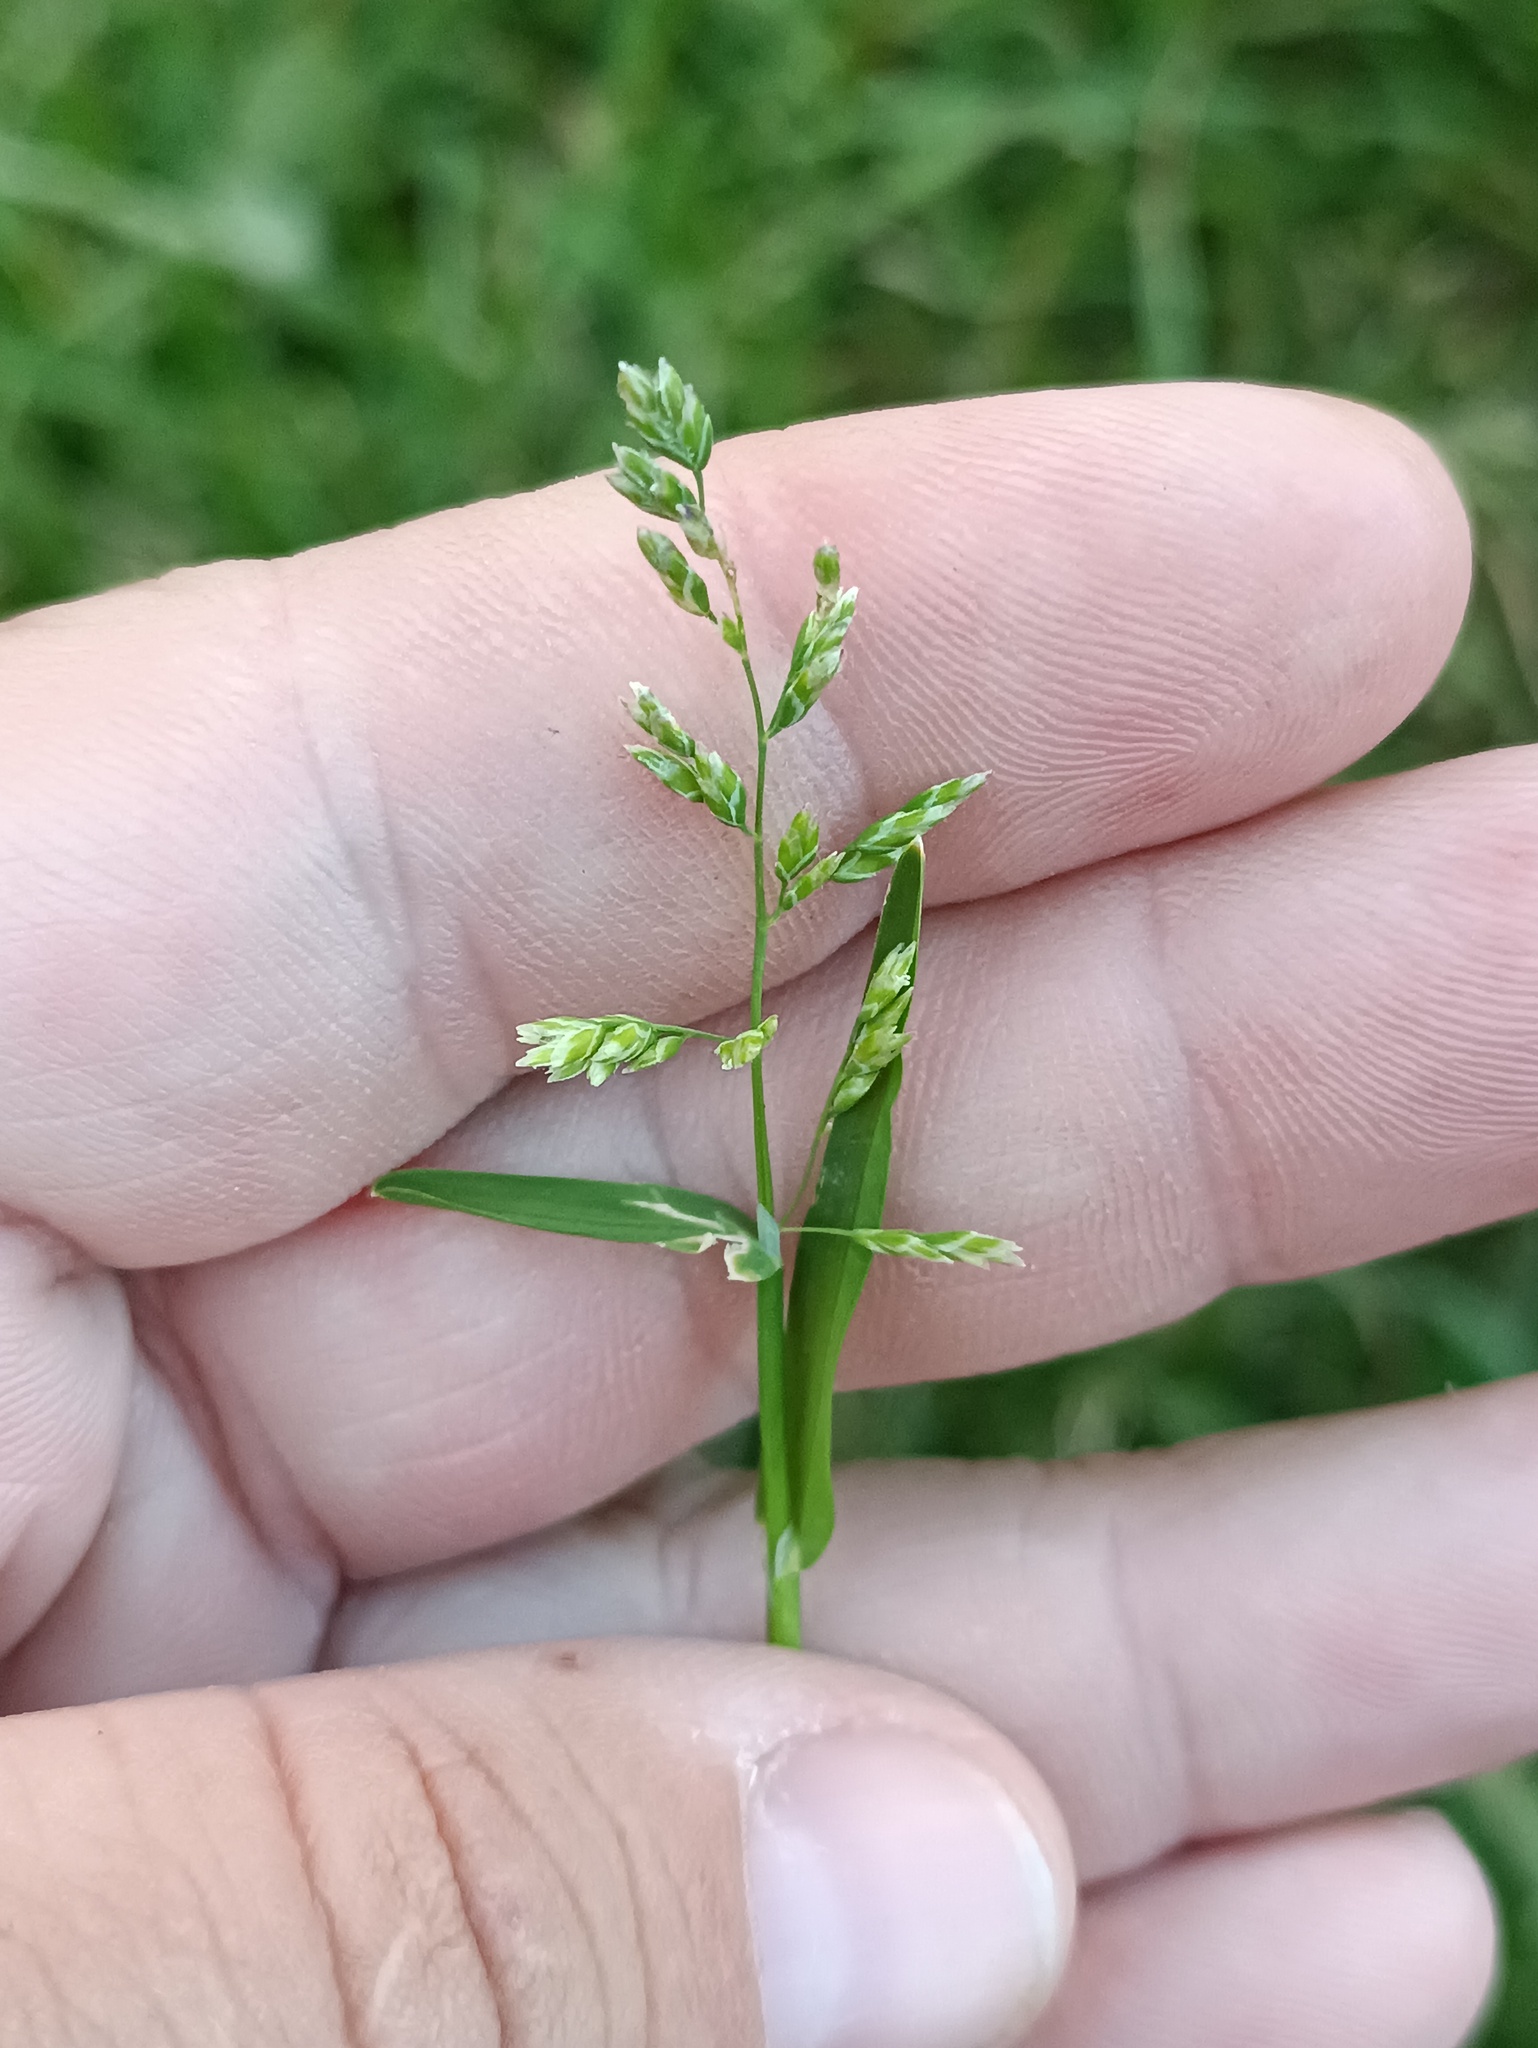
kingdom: Plantae
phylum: Tracheophyta
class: Liliopsida
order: Poales
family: Poaceae
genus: Poa
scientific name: Poa annua
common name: Annual bluegrass
